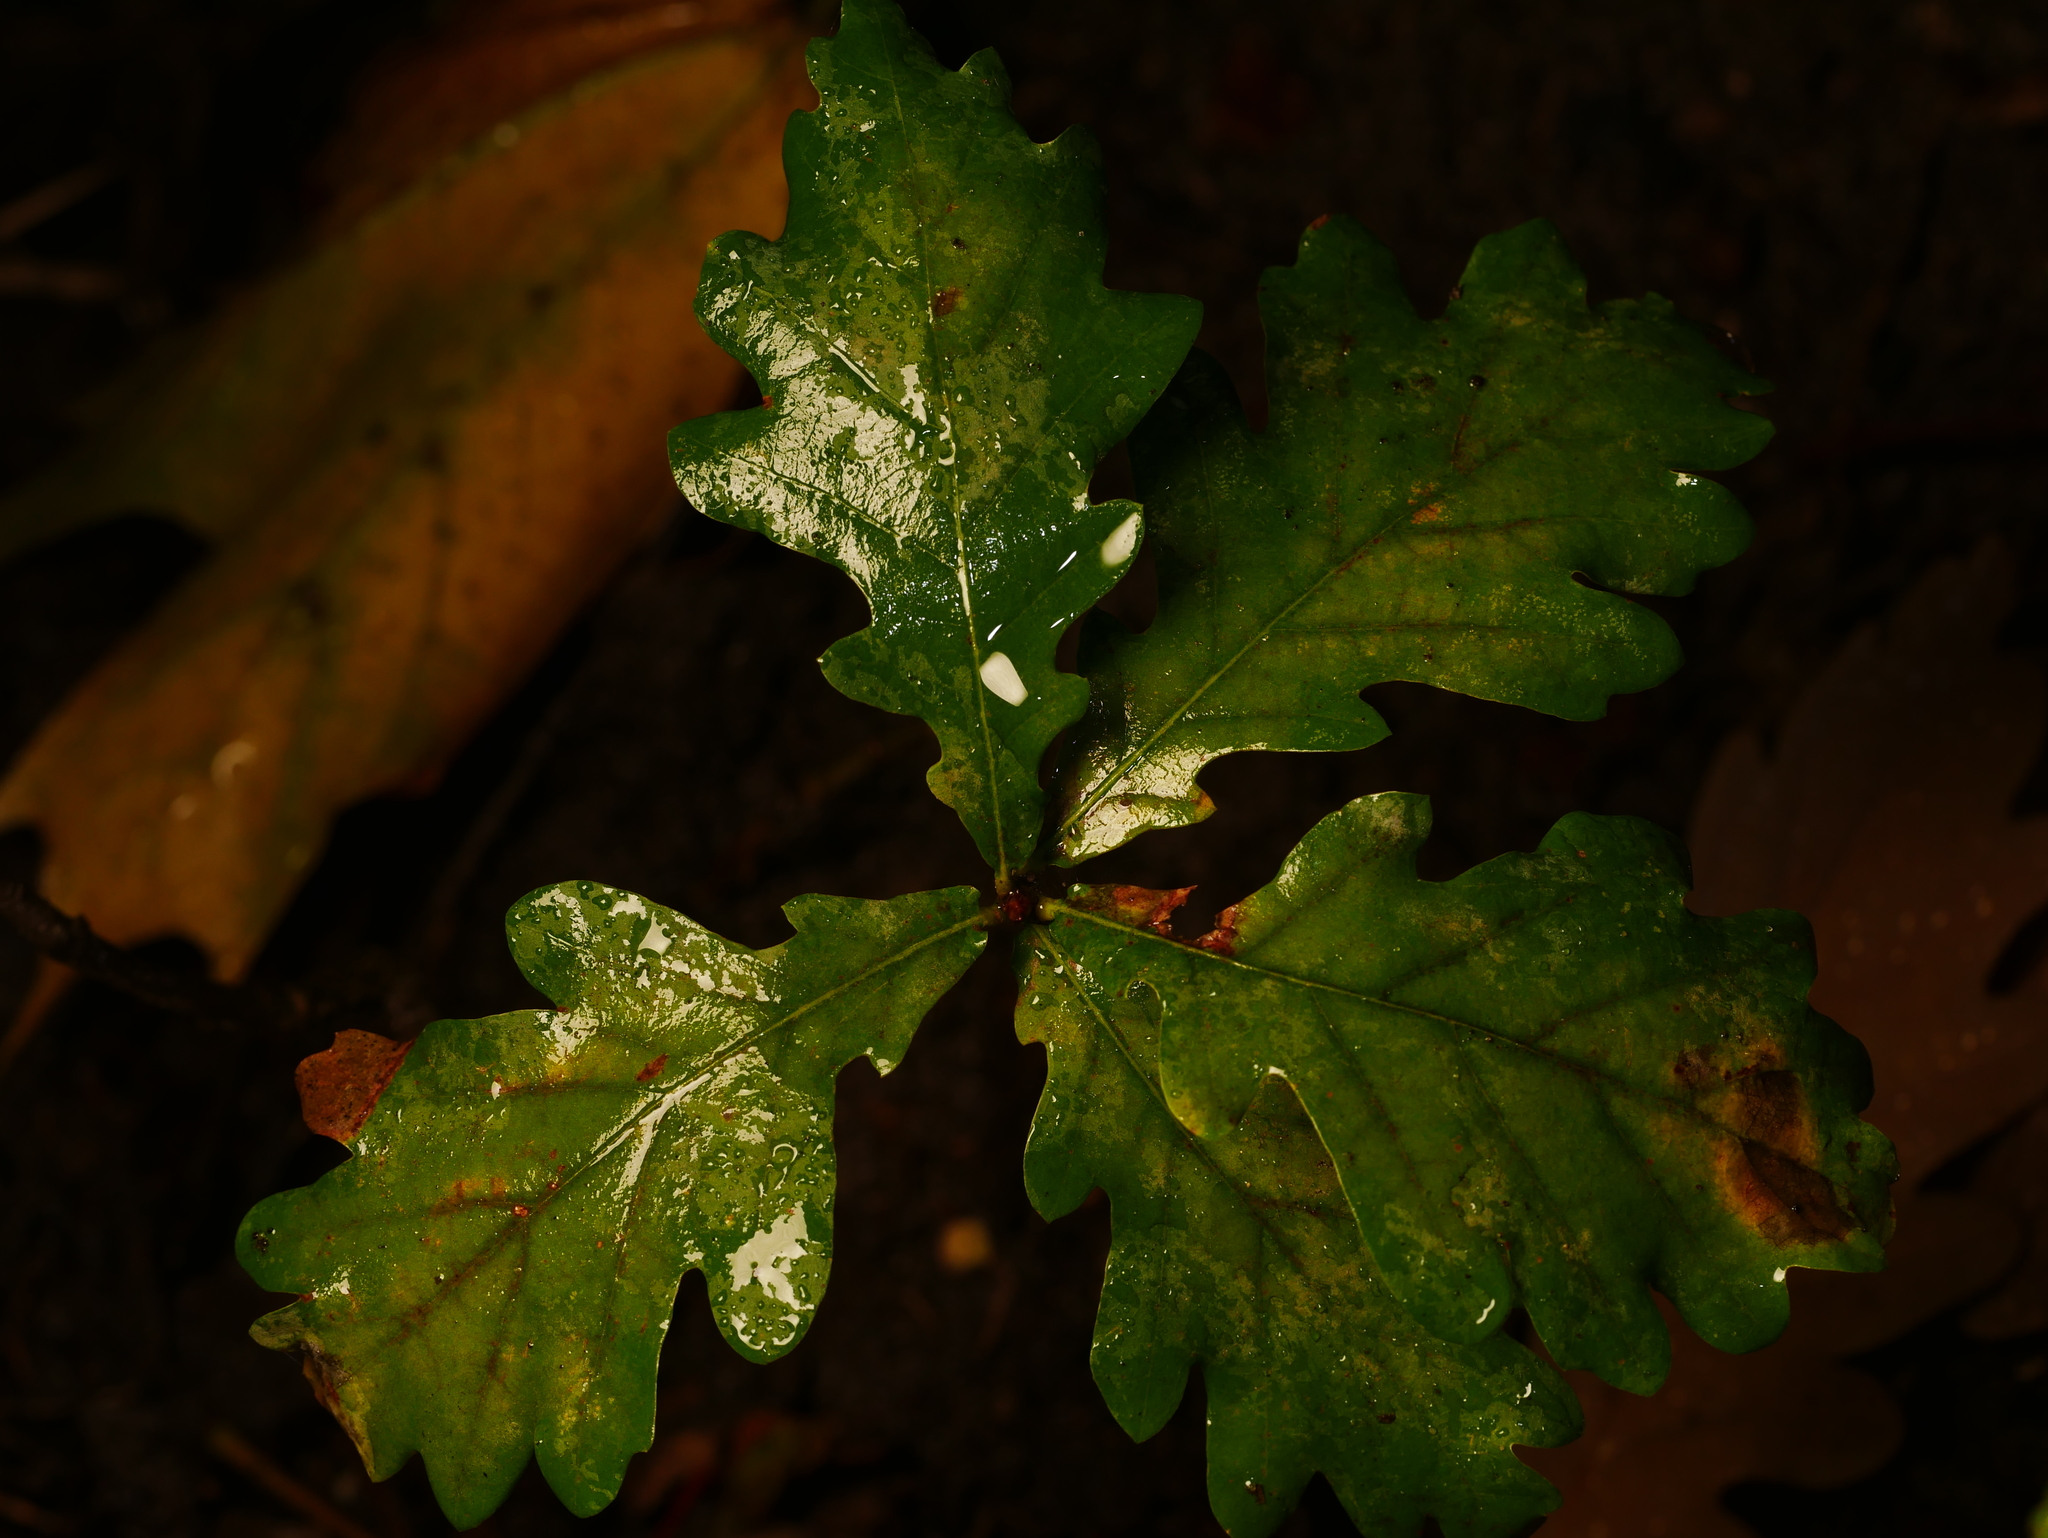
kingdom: Plantae
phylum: Tracheophyta
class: Magnoliopsida
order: Fagales
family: Fagaceae
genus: Quercus
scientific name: Quercus robur
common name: Pedunculate oak
